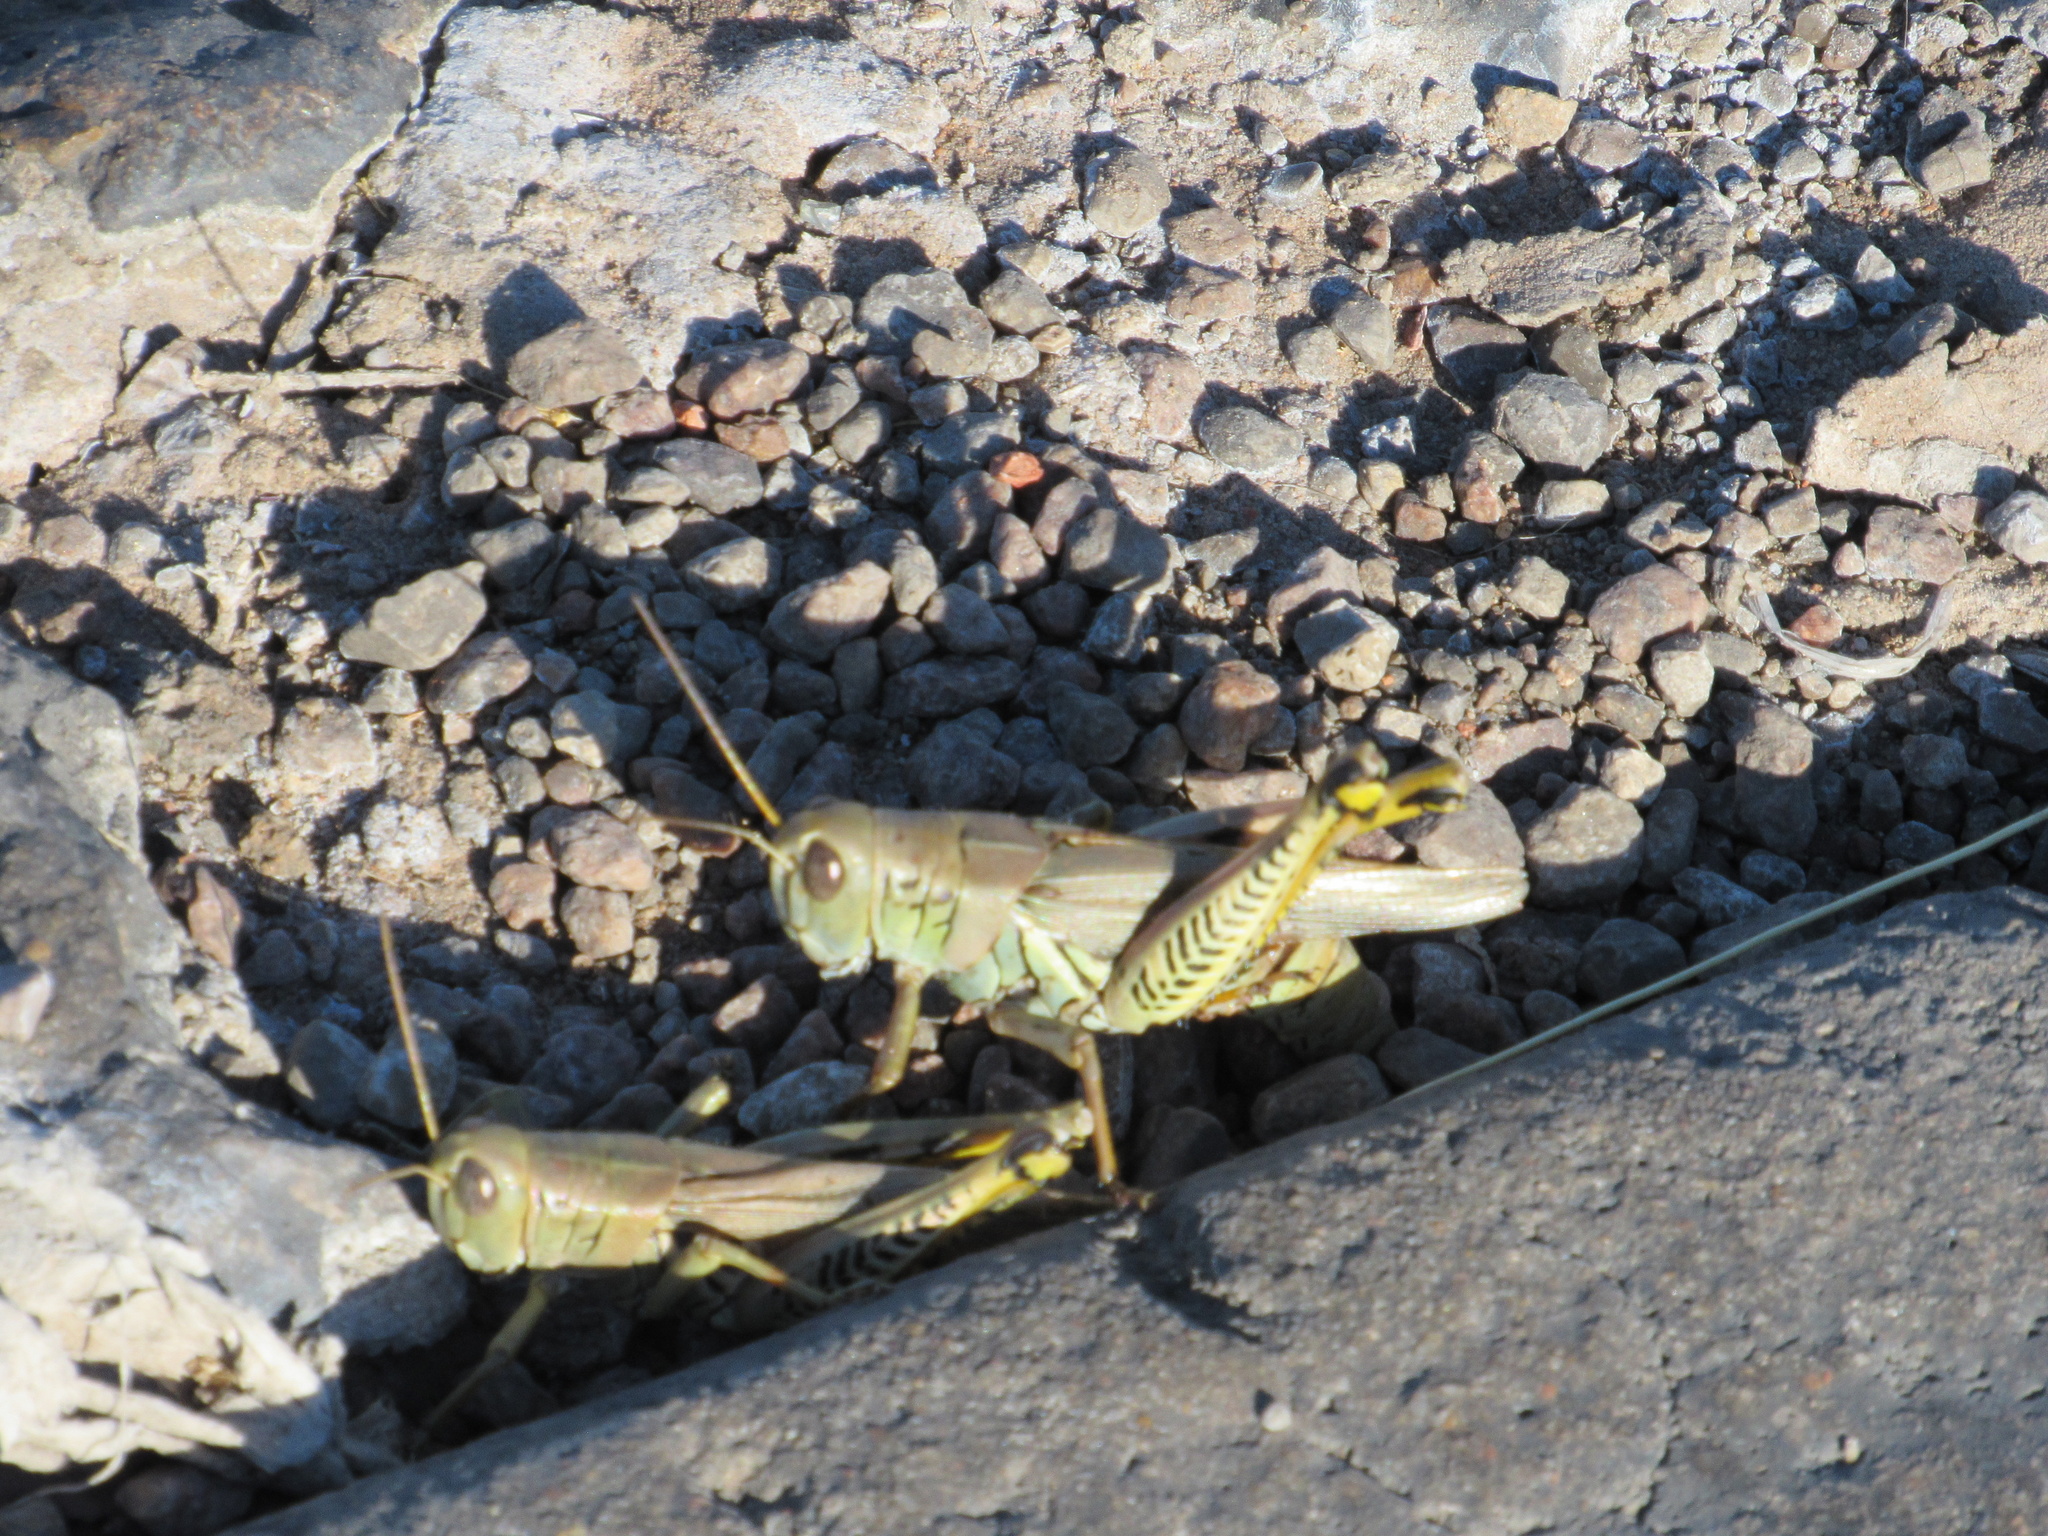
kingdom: Animalia
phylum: Arthropoda
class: Insecta
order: Orthoptera
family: Acrididae
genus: Melanoplus
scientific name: Melanoplus differentialis
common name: Differential grasshopper
